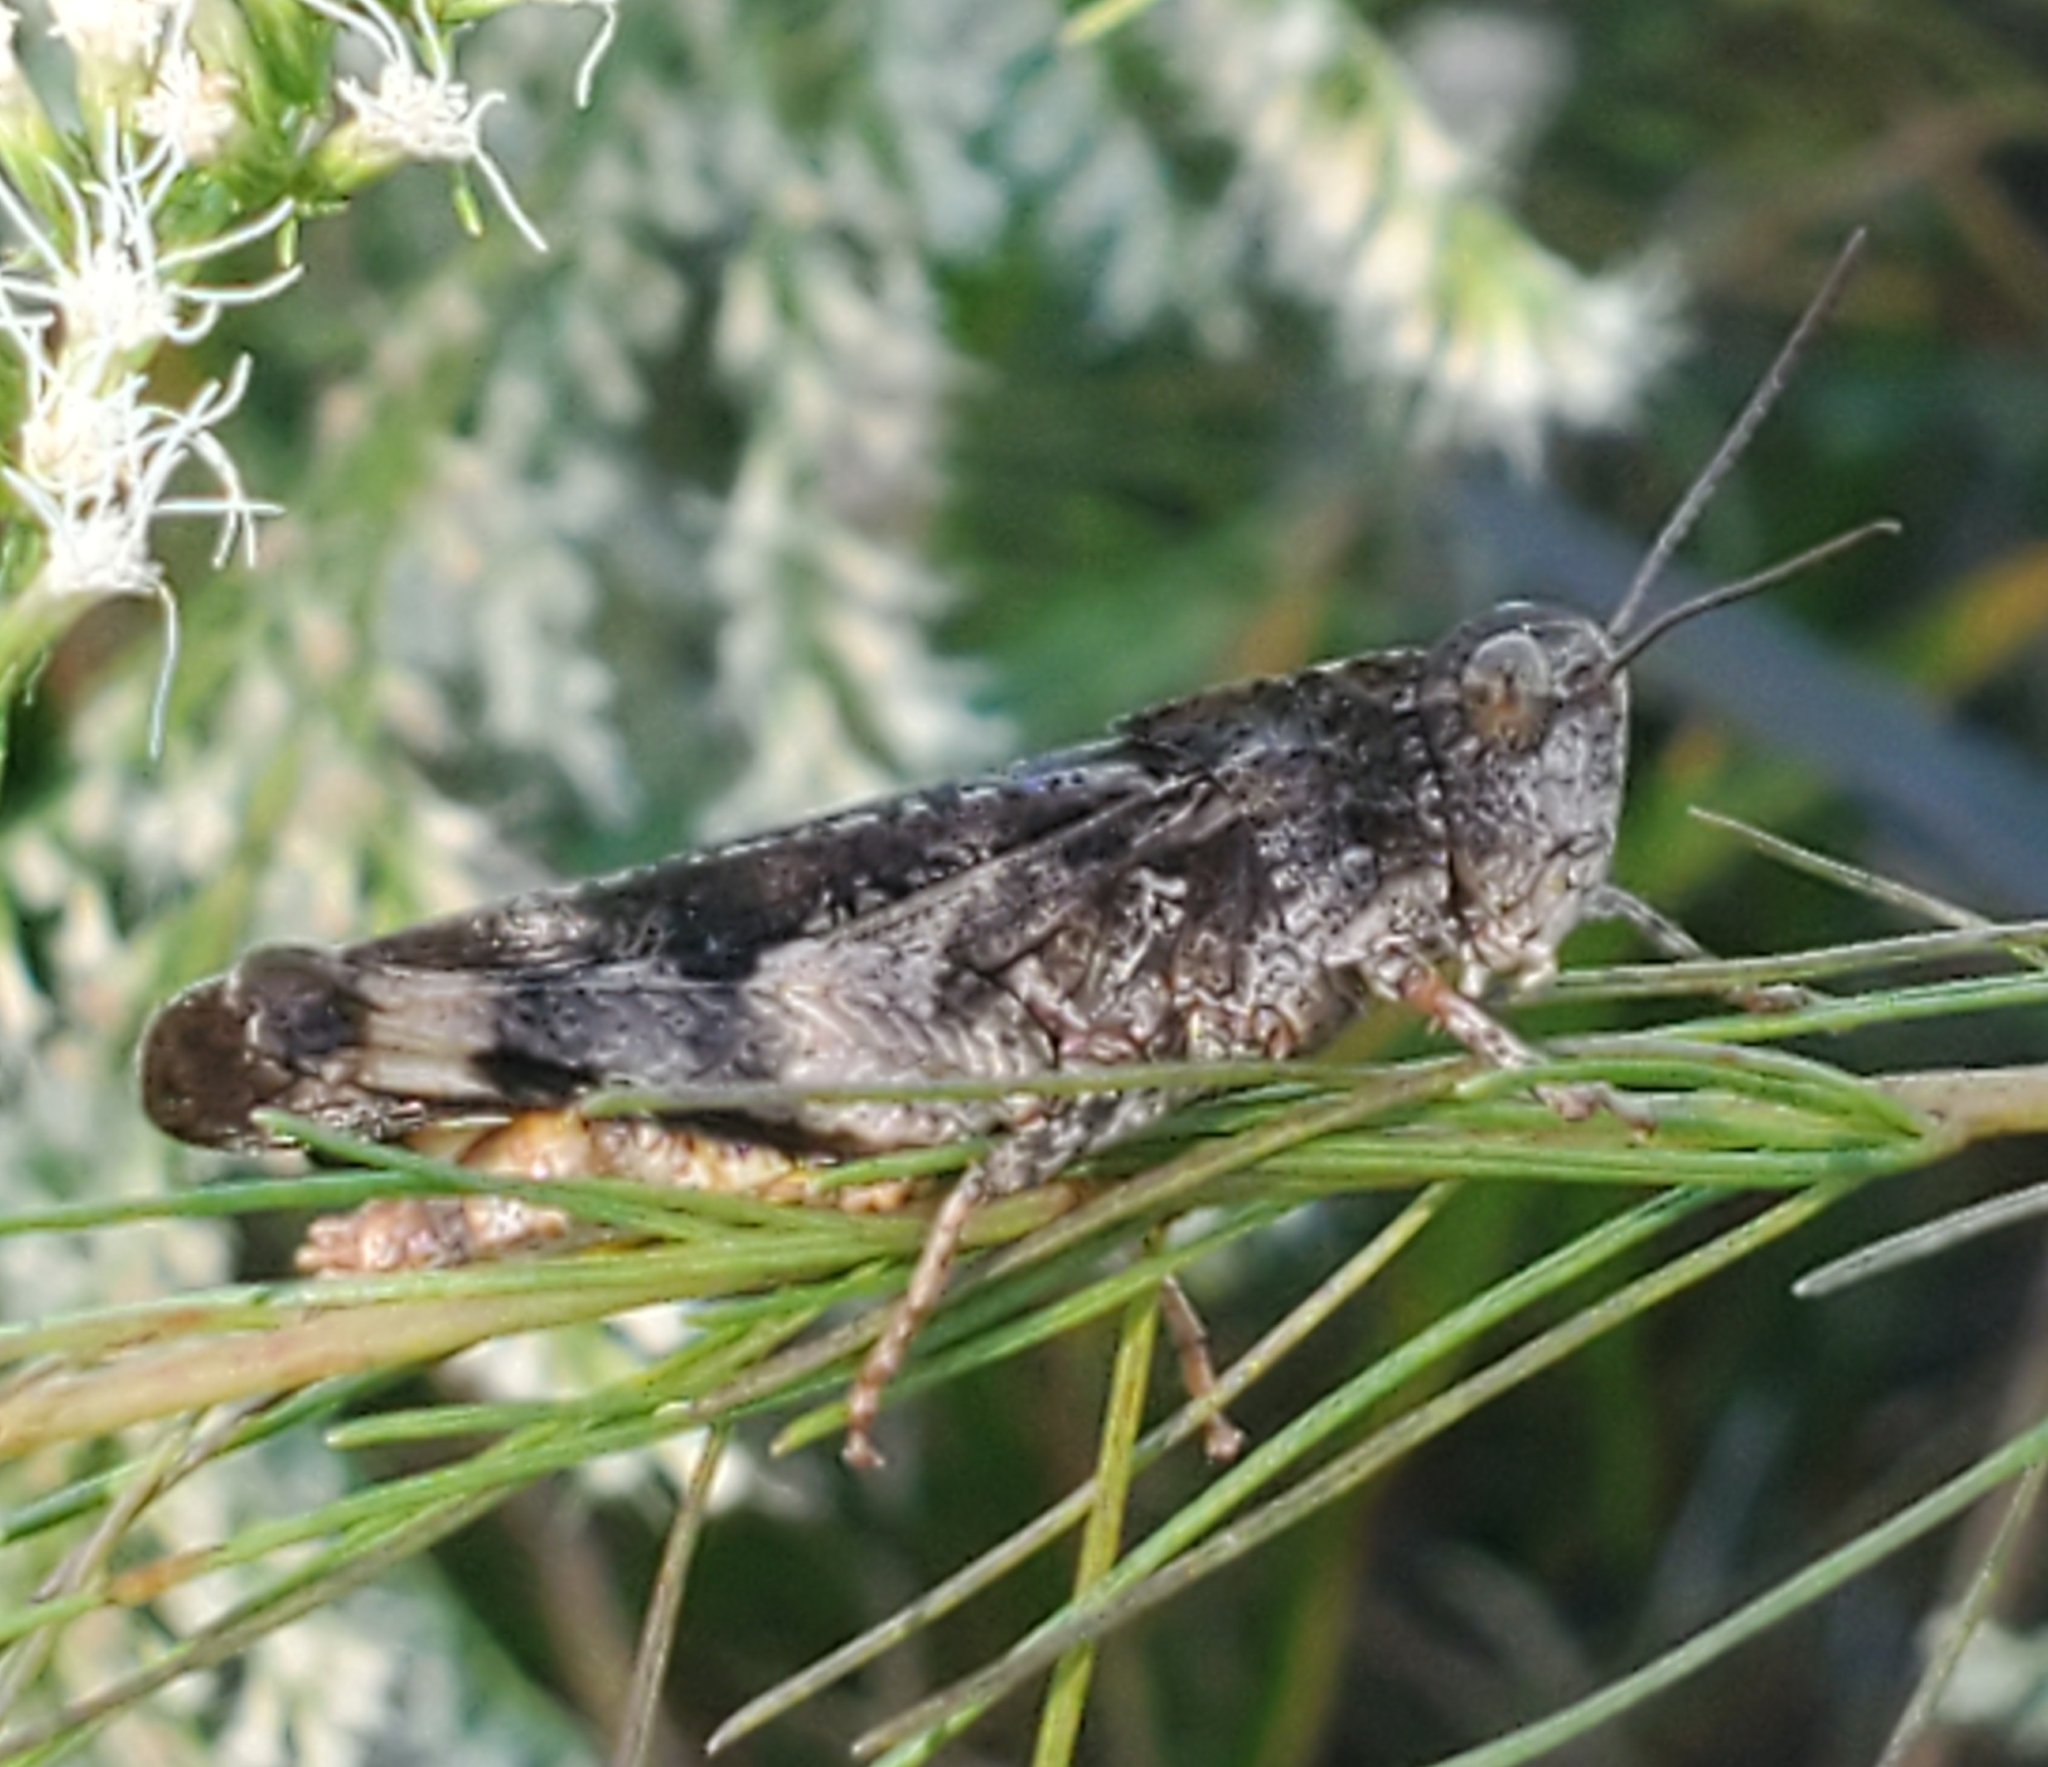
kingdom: Animalia
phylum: Arthropoda
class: Insecta
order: Orthoptera
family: Acrididae
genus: Chortophaga
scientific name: Chortophaga australior
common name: Southern green-striped grasshopper
